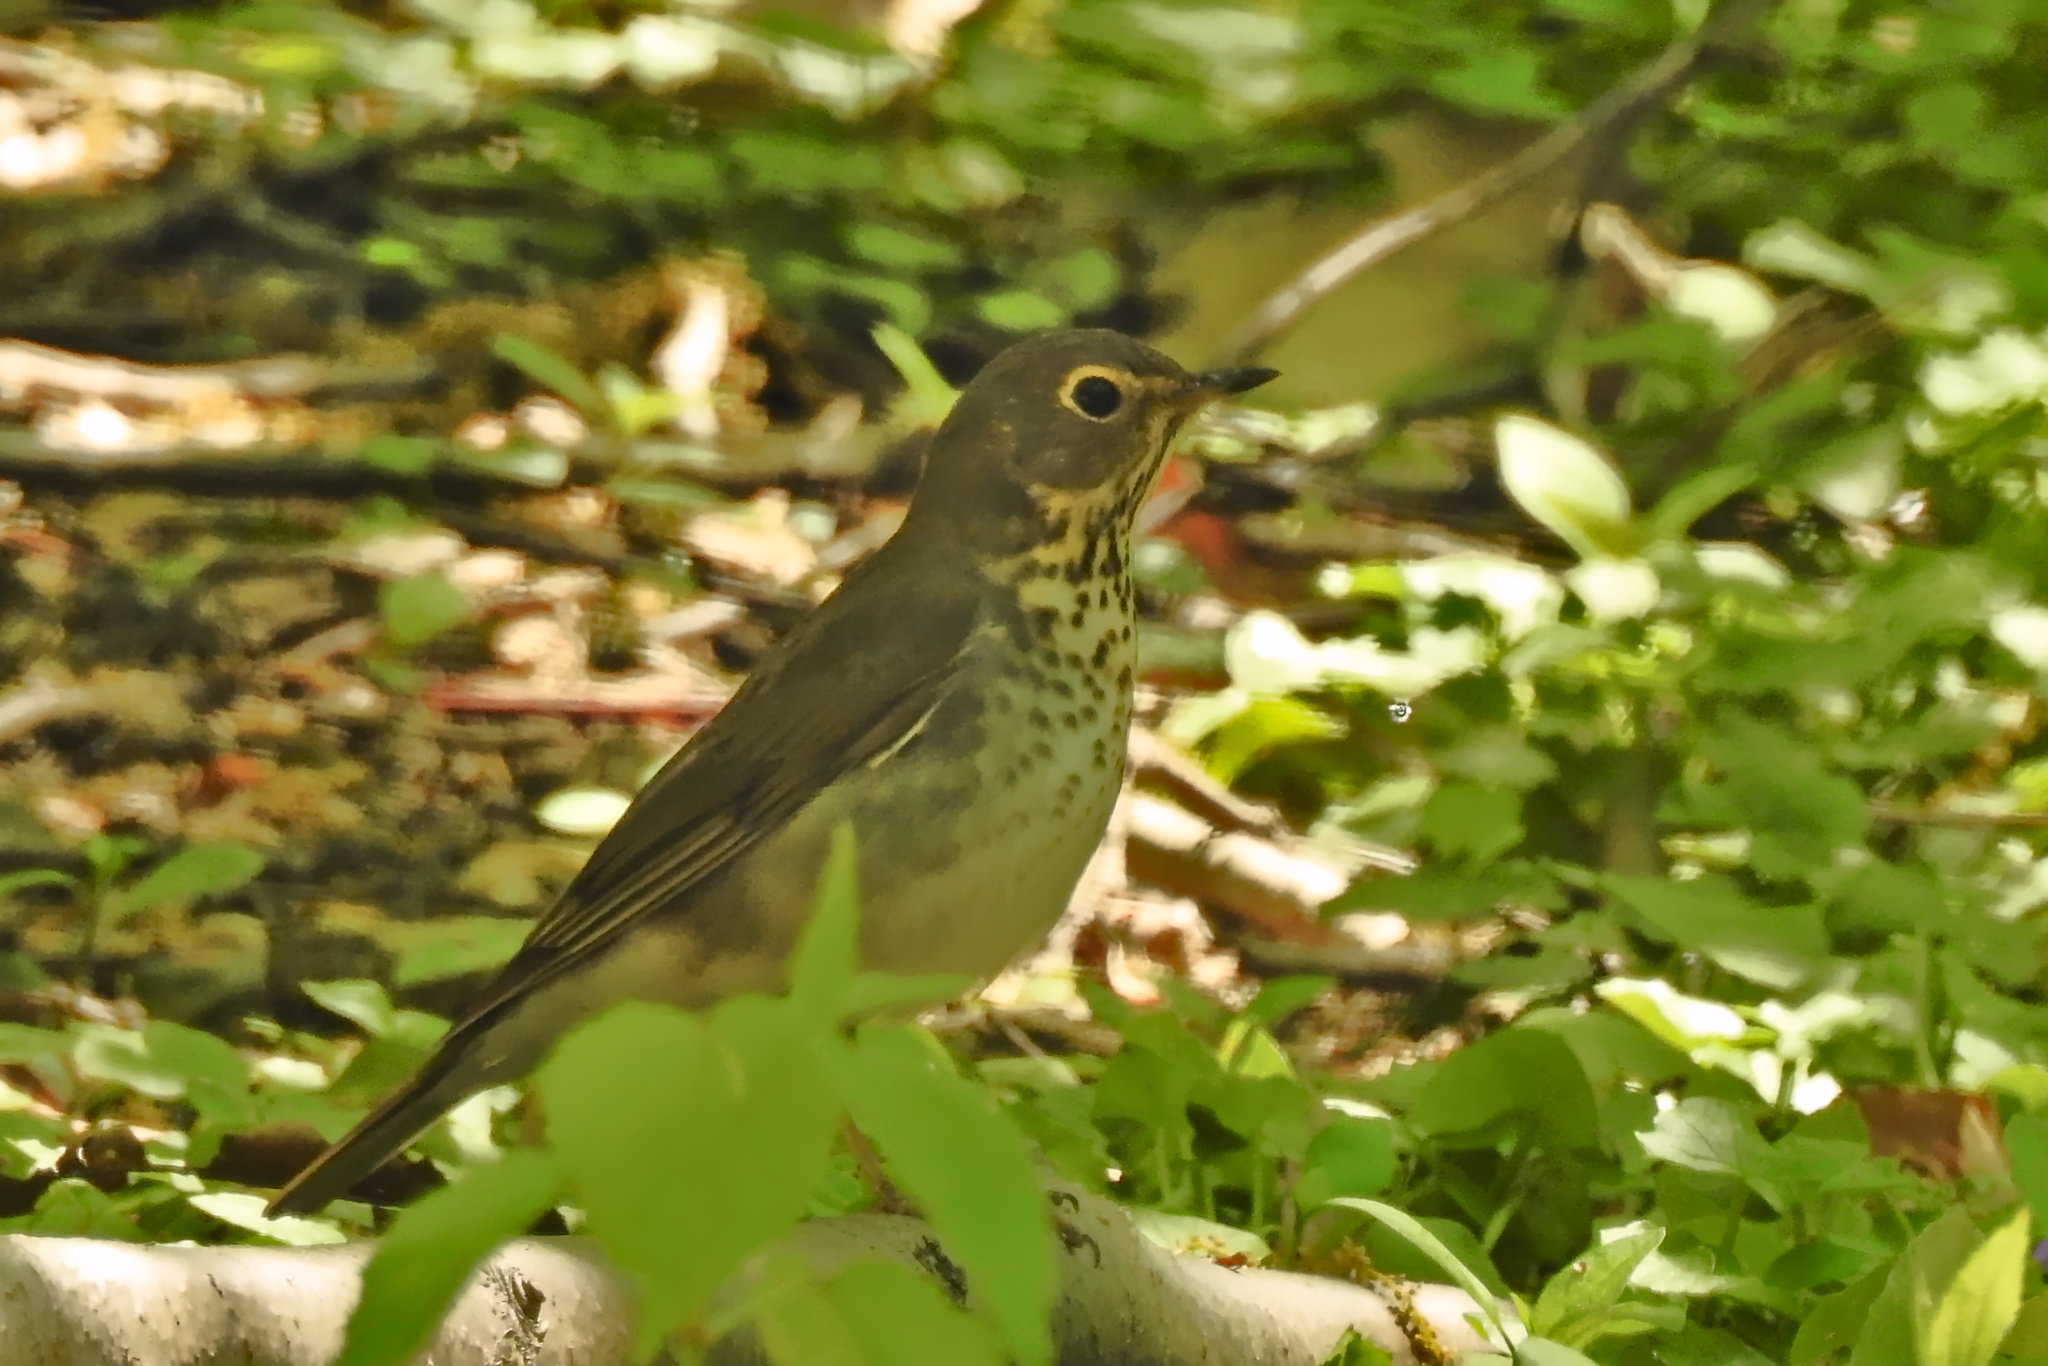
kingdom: Animalia
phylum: Chordata
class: Aves
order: Passeriformes
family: Turdidae
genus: Catharus
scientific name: Catharus ustulatus
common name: Swainson's thrush
